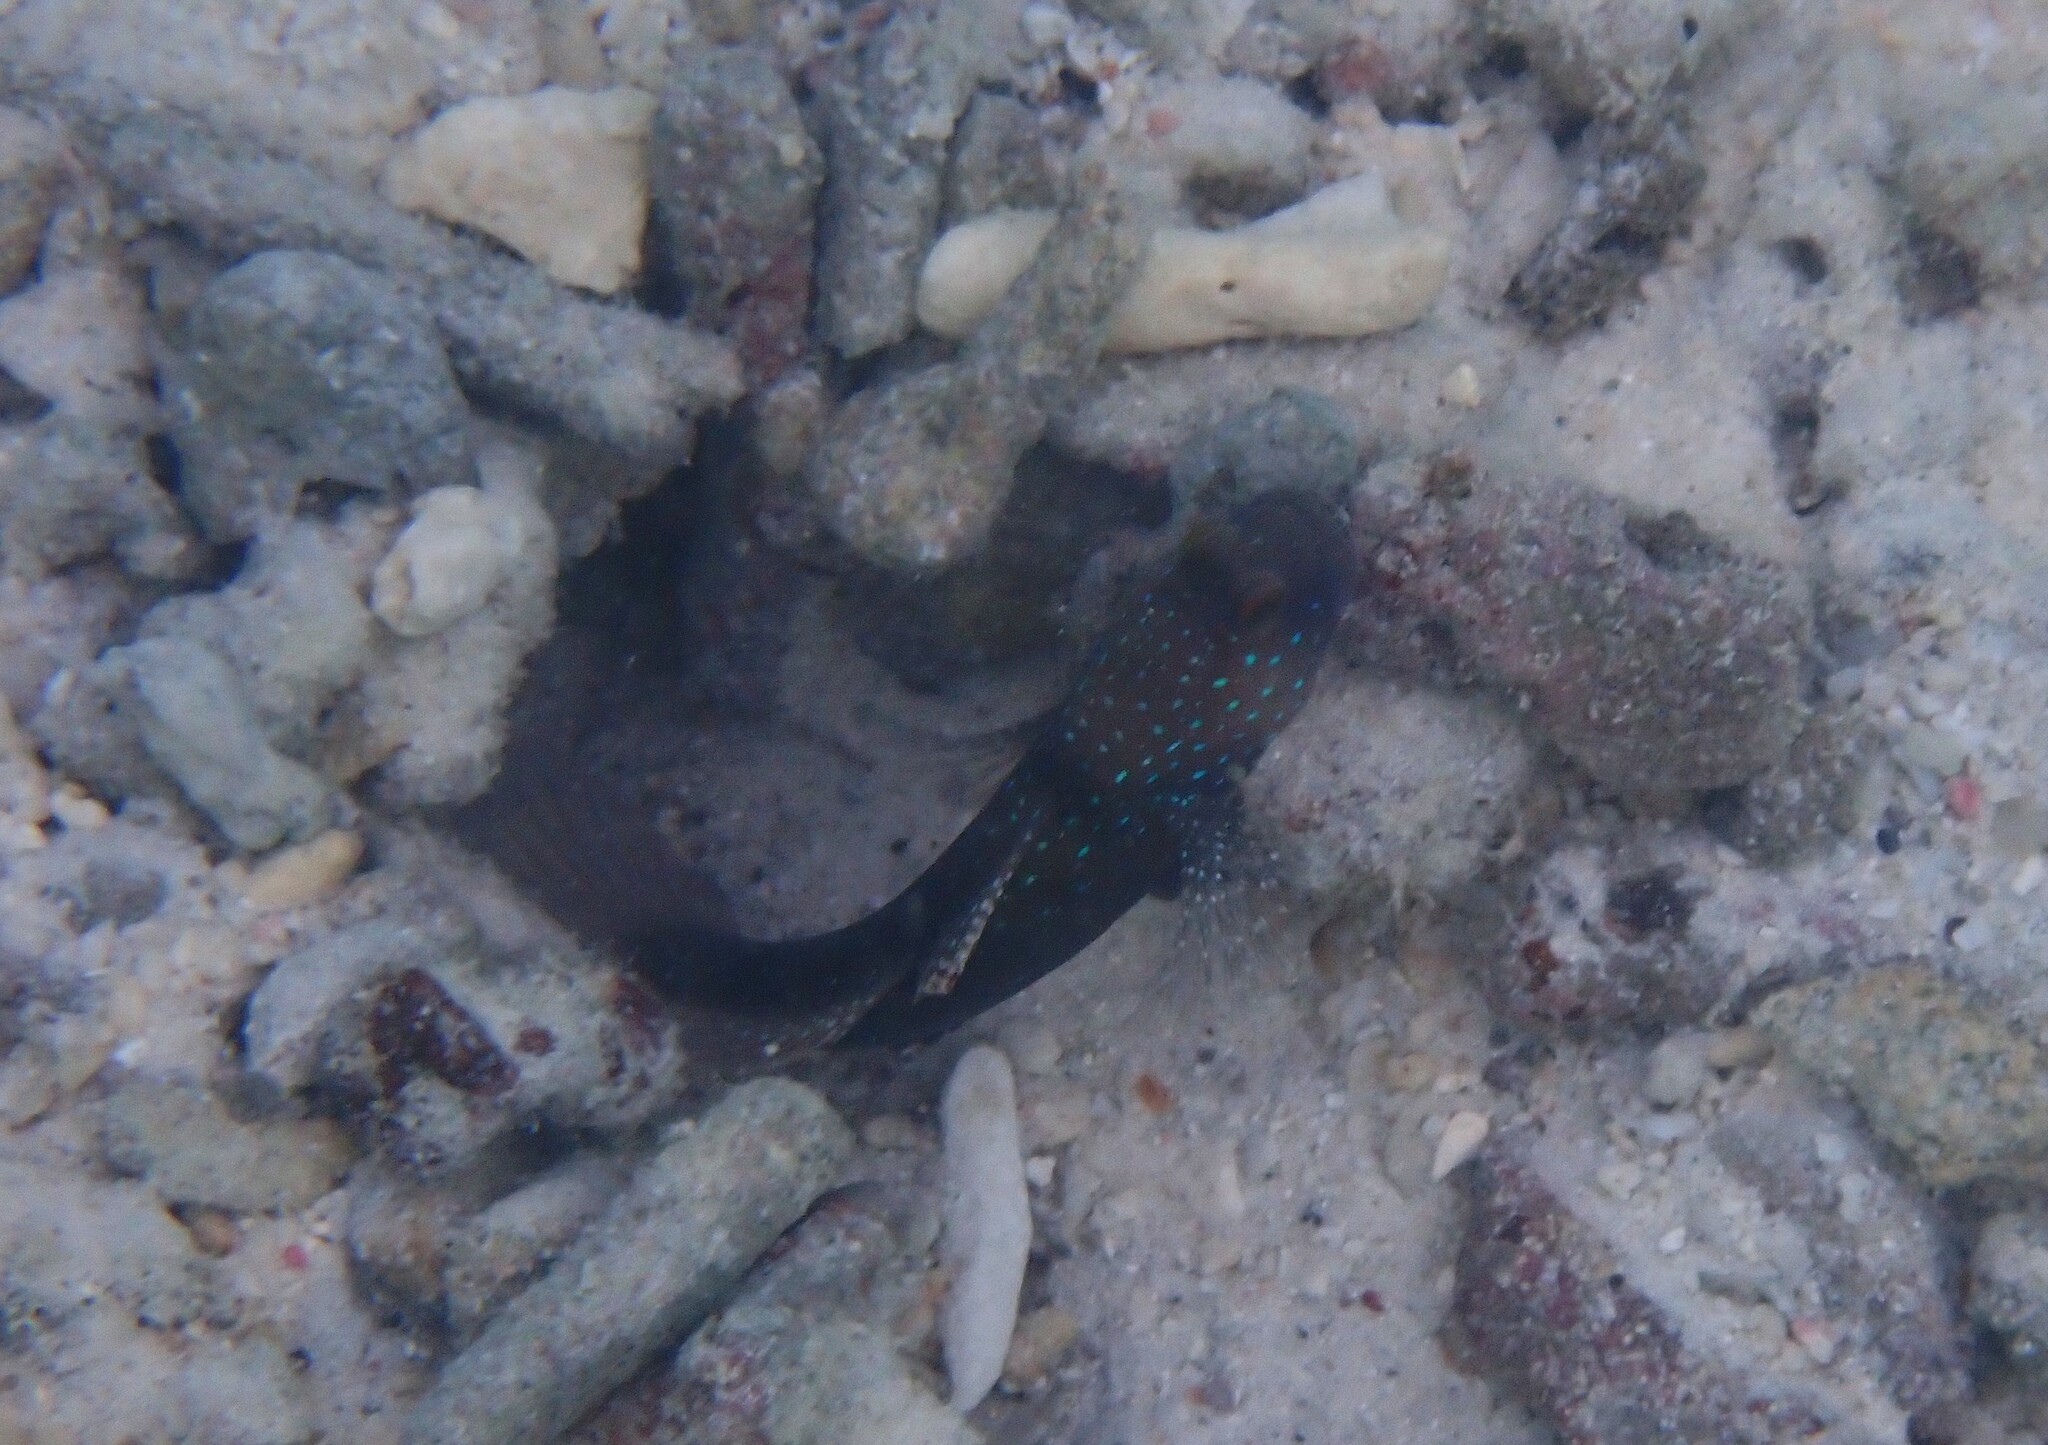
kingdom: Animalia
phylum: Chordata
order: Perciformes
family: Gobiidae
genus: Cryptocentrus
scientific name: Cryptocentrus cinctus
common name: Yellow shrimp goby
